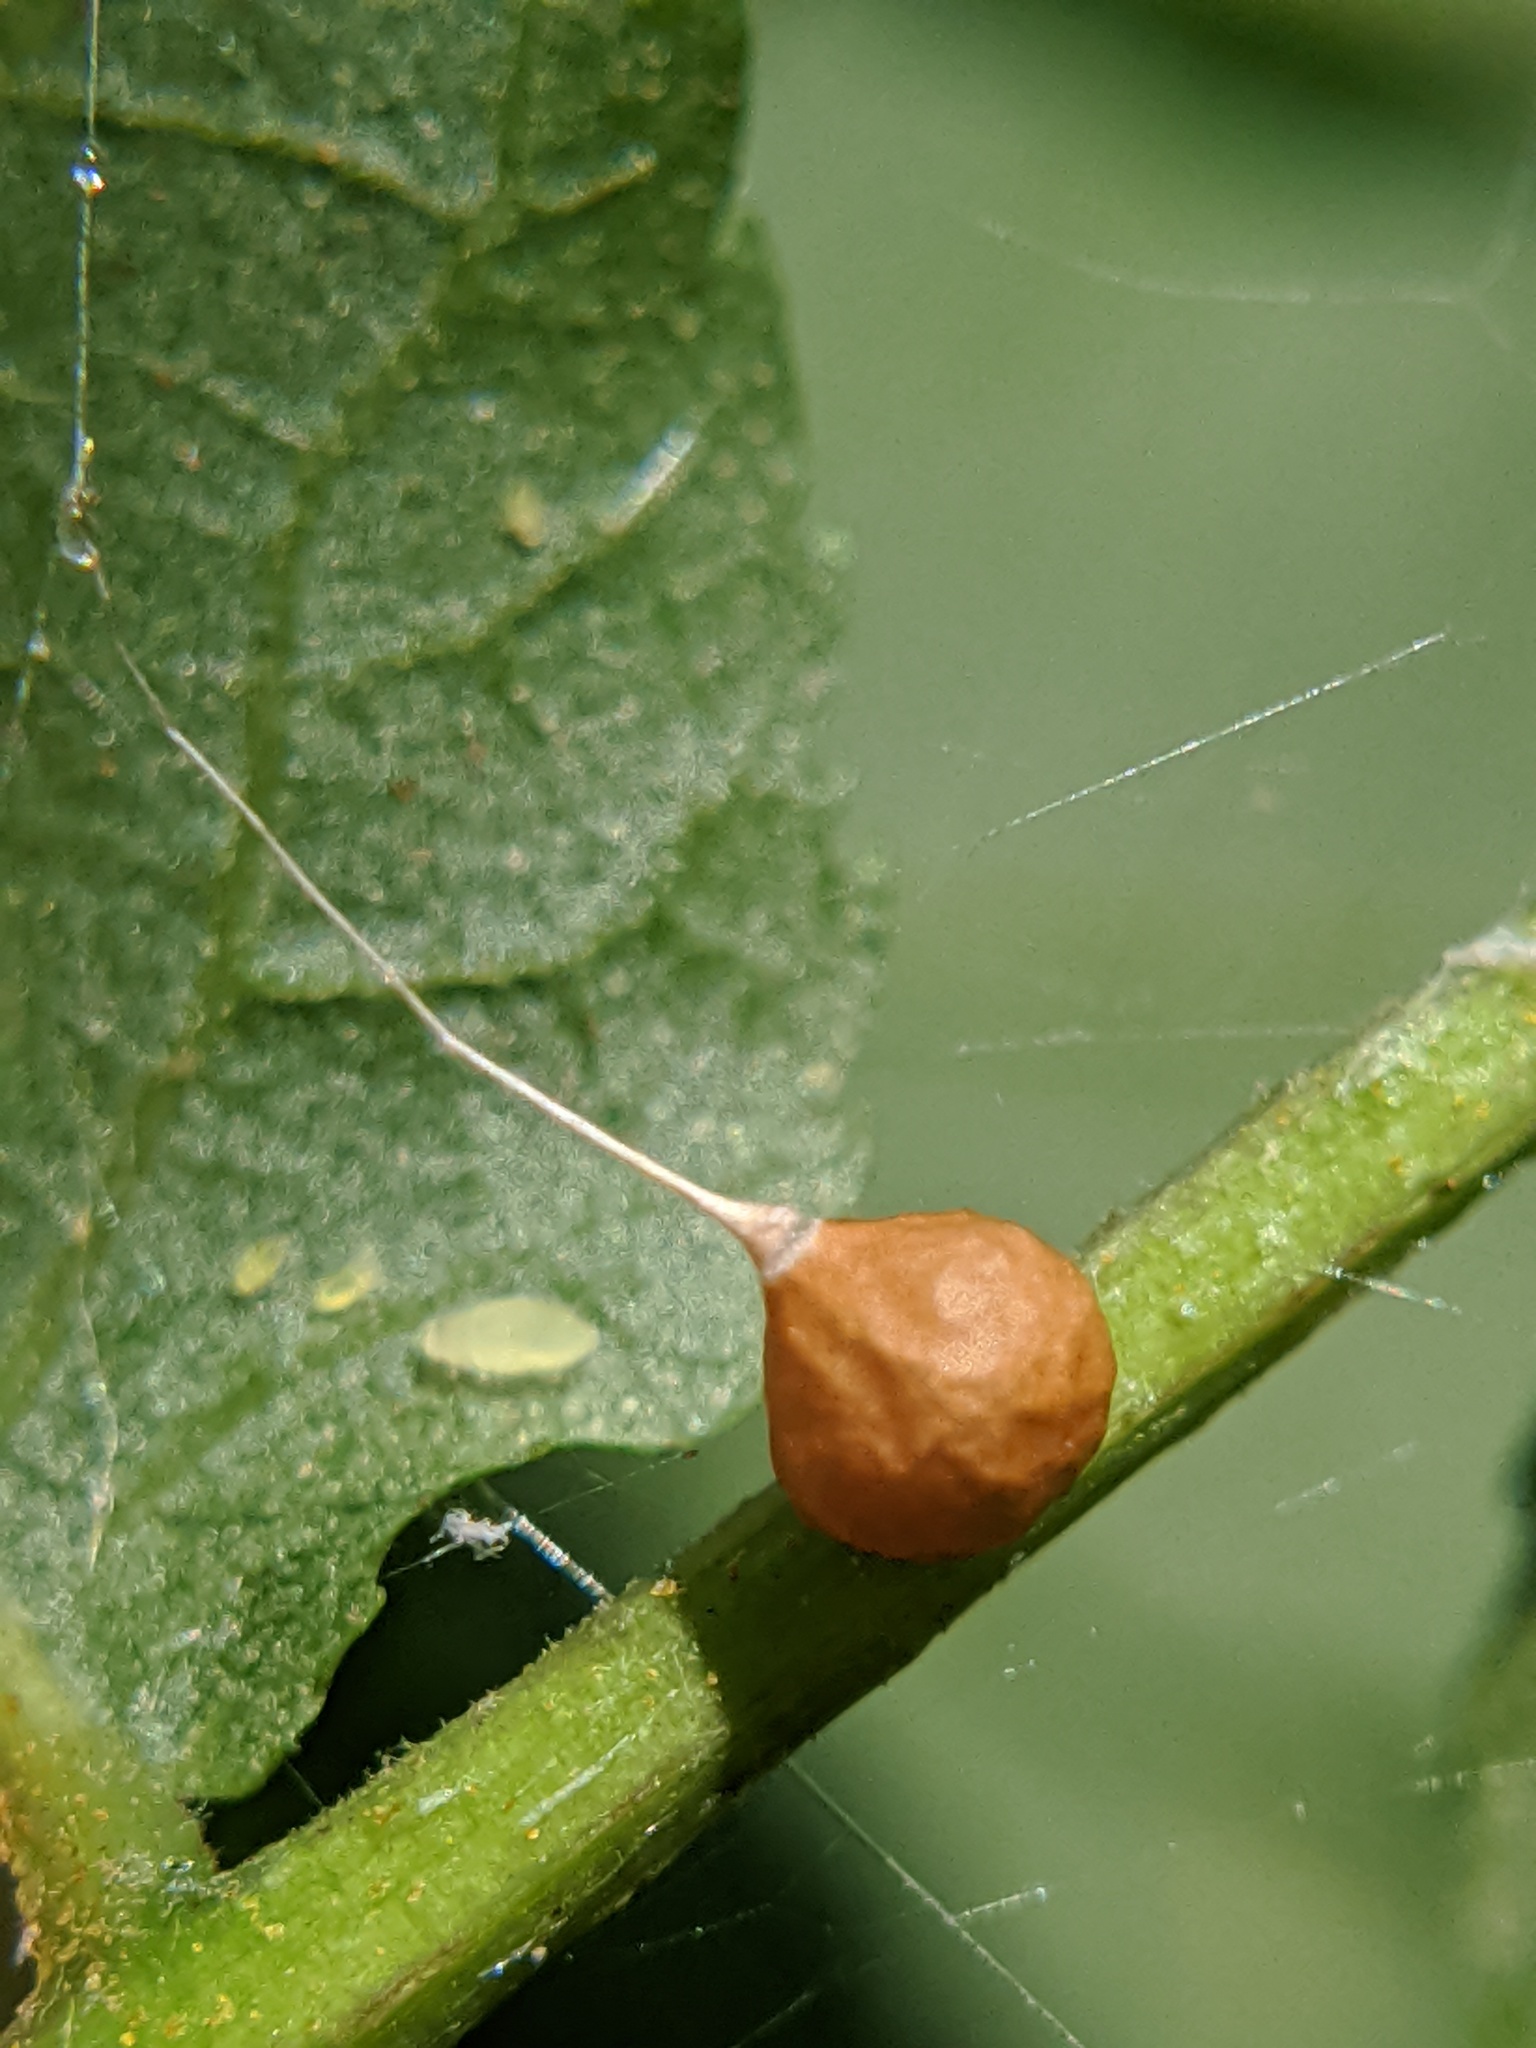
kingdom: Animalia
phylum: Arthropoda
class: Arachnida
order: Araneae
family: Theridiosomatidae
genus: Theridiosoma
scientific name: Theridiosoma gemmosum
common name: Ray spider
